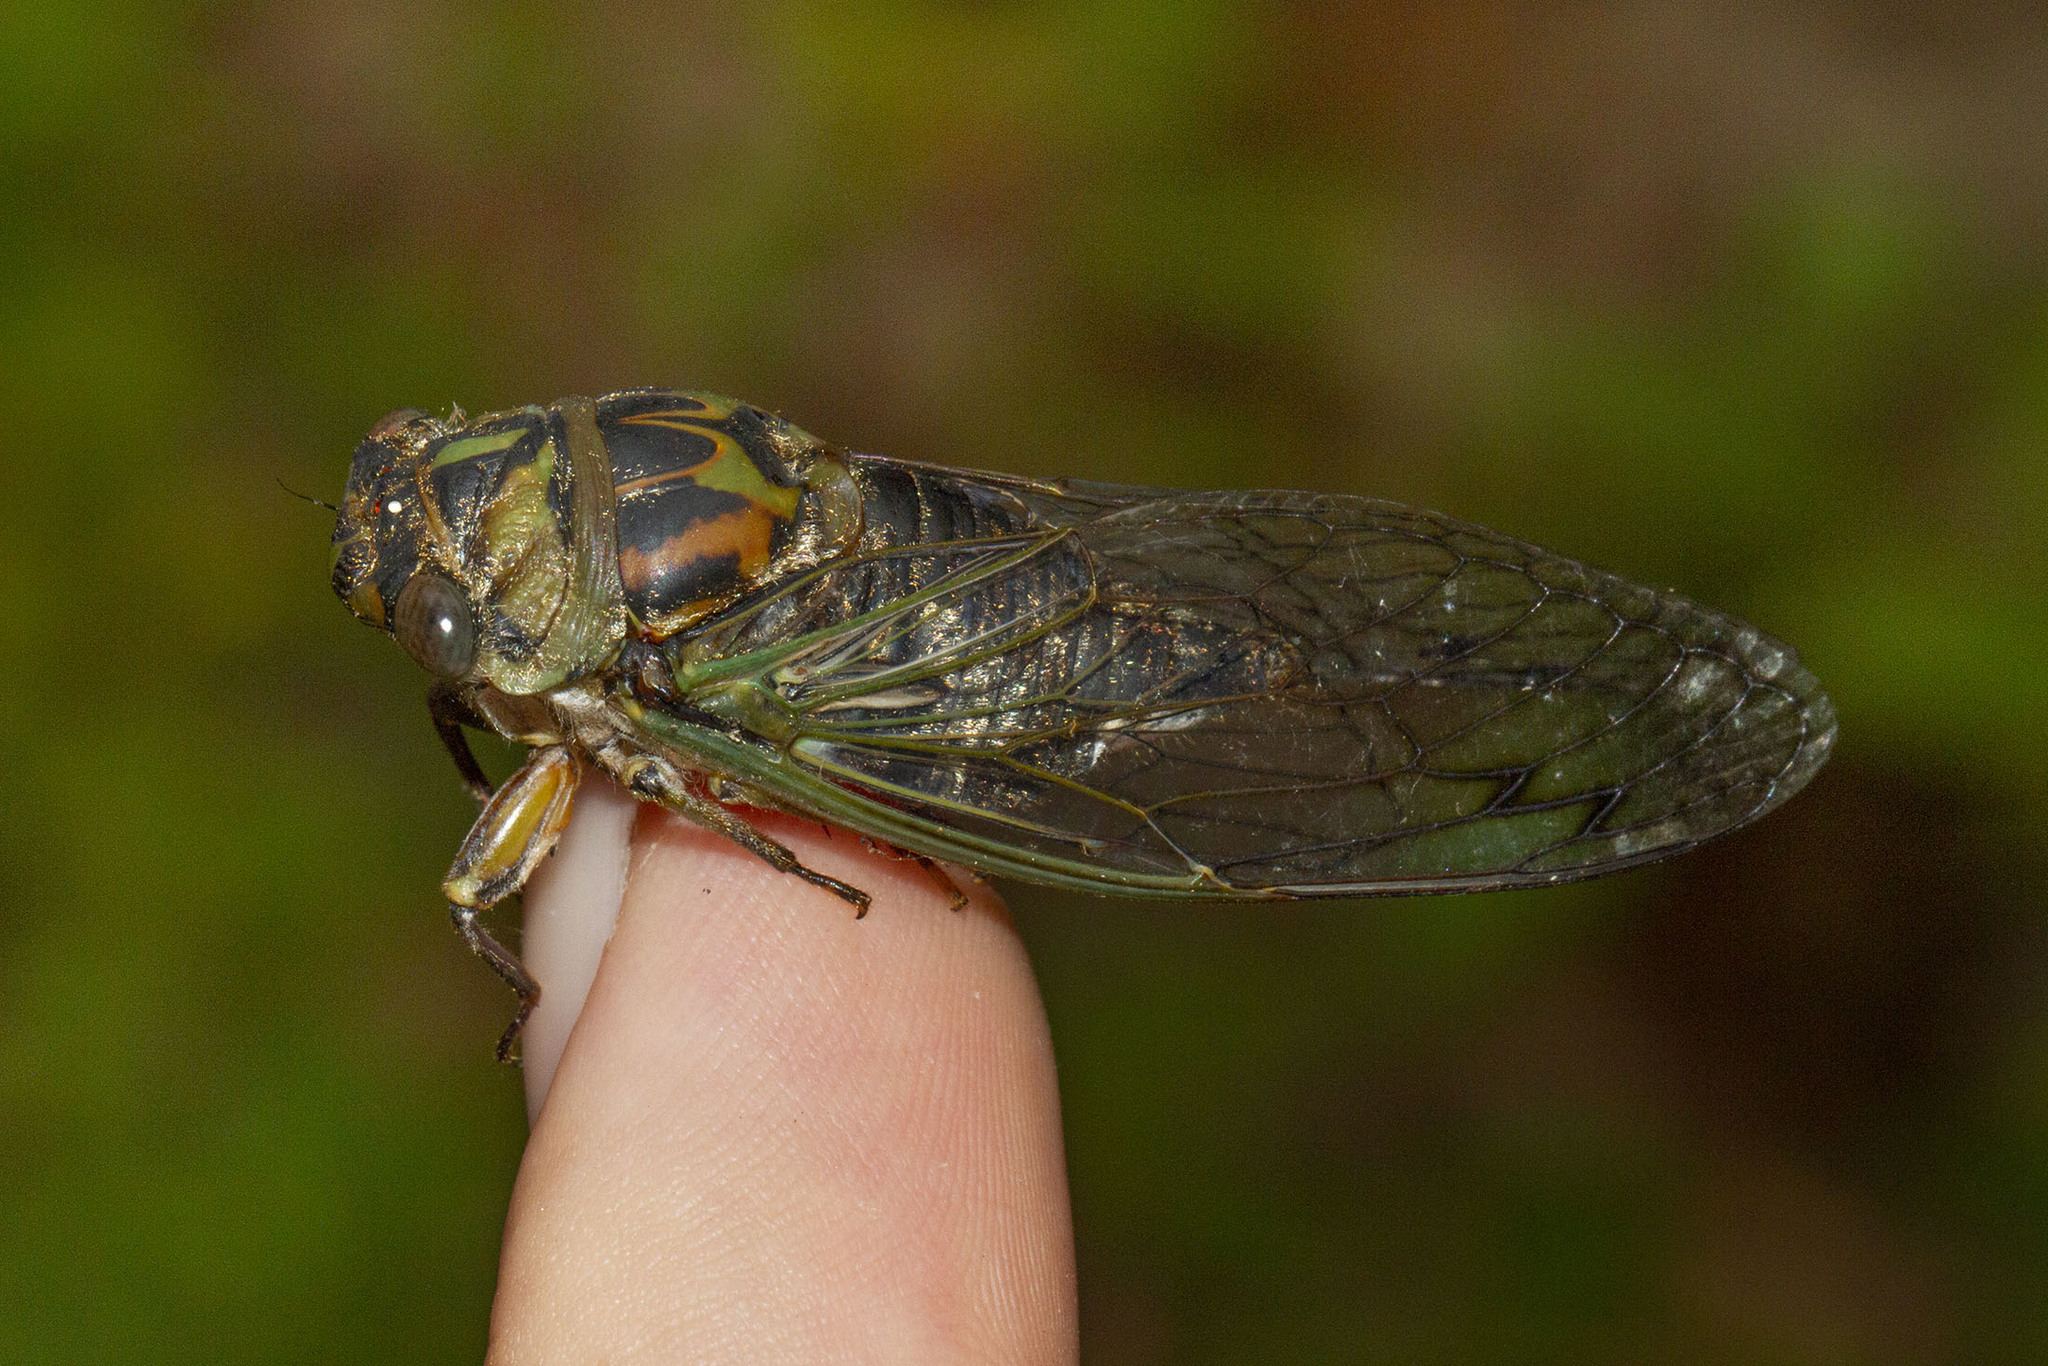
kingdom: Animalia
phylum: Arthropoda
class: Insecta
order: Hemiptera
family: Cicadidae
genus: Neotibicen
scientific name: Neotibicen canicularis
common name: God-day cicada
